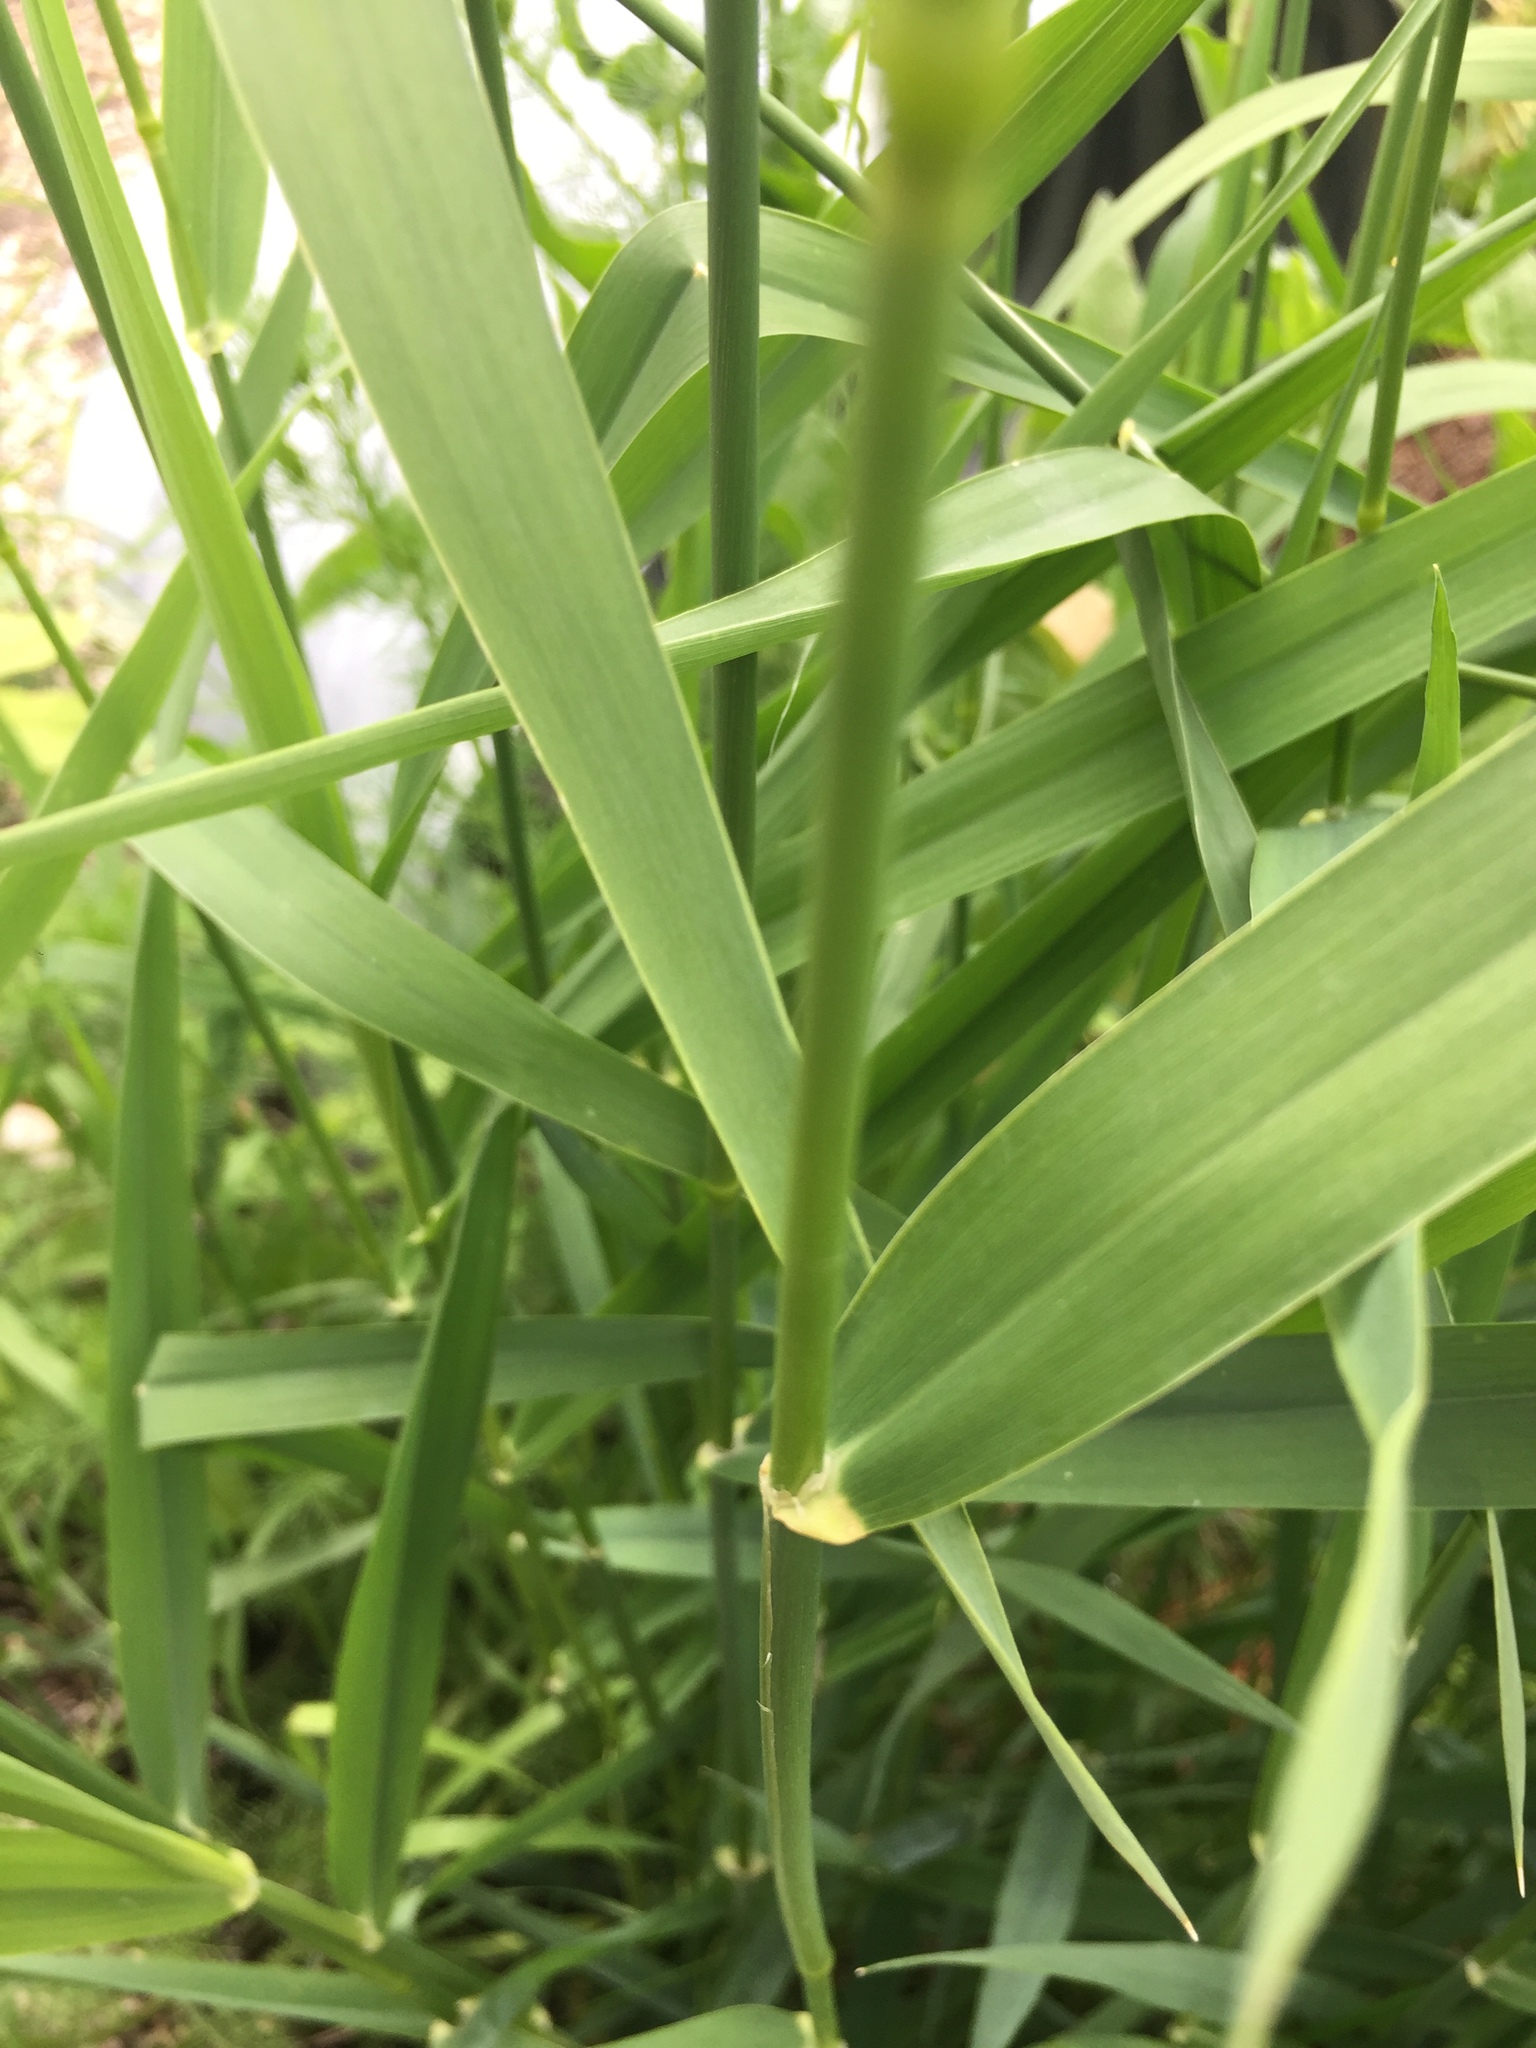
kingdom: Plantae
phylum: Tracheophyta
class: Liliopsida
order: Poales
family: Poaceae
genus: Phalaris
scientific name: Phalaris arundinacea
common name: Reed canary-grass
